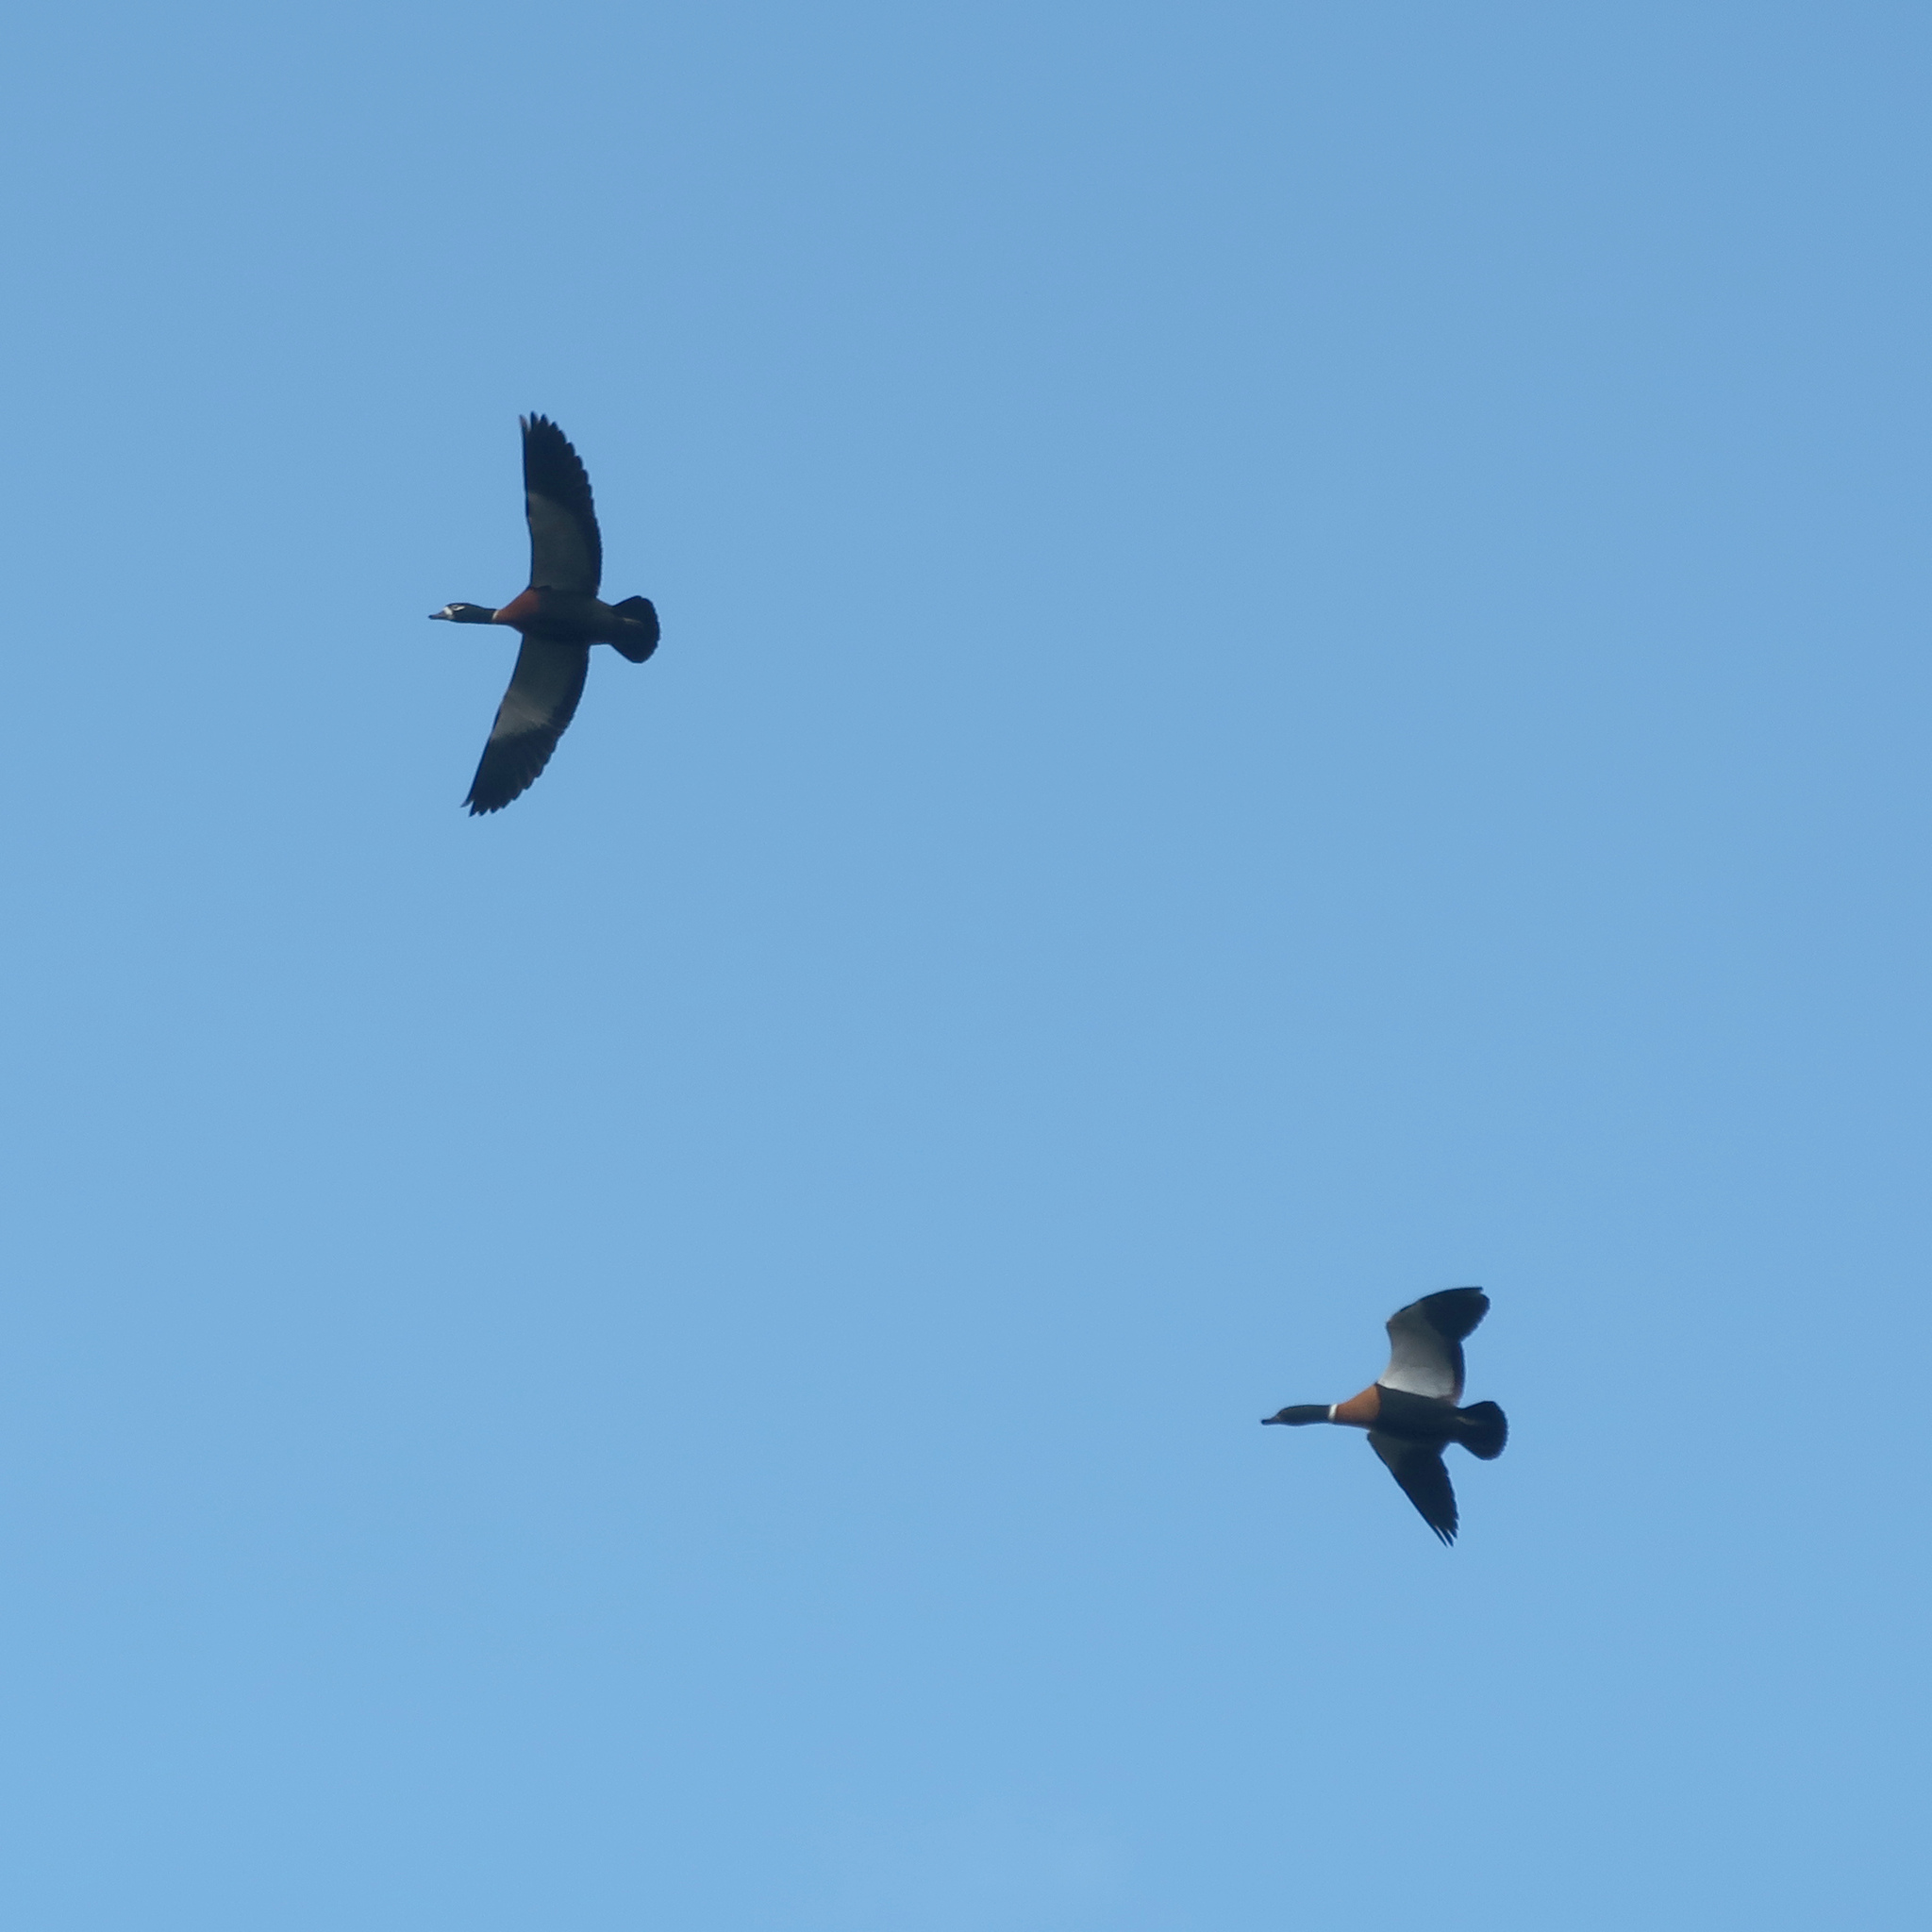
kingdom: Animalia
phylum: Chordata
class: Aves
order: Anseriformes
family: Anatidae
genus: Tadorna
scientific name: Tadorna tadornoides
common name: Australian shelduck
